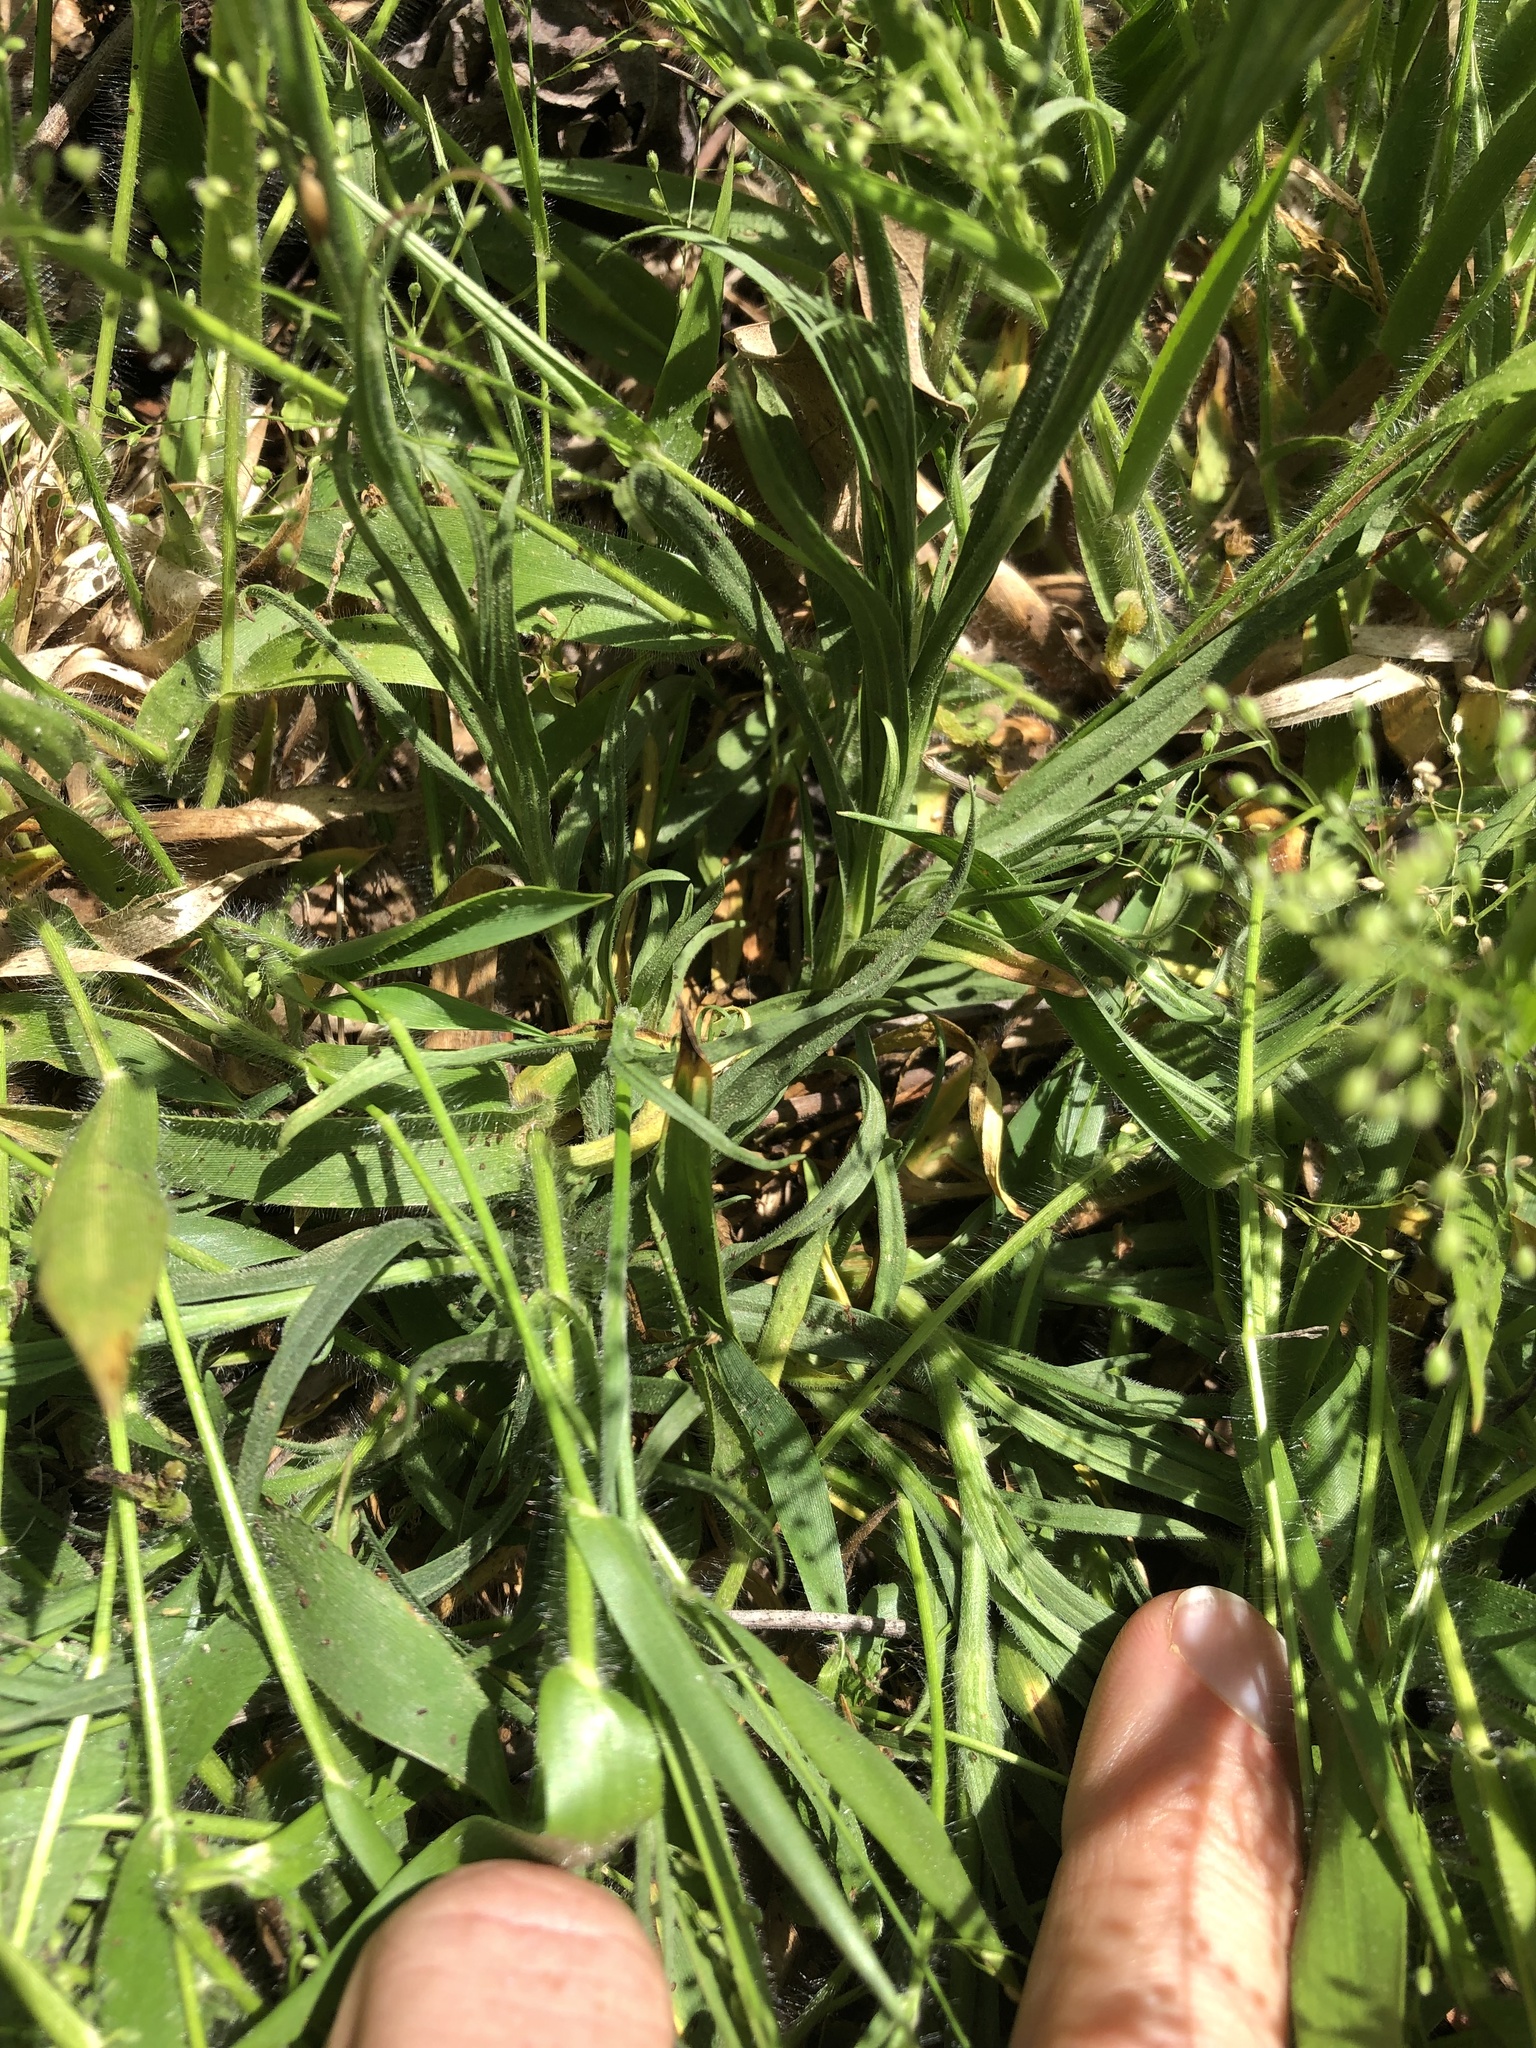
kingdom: Plantae
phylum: Tracheophyta
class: Magnoliopsida
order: Caryophyllales
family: Caryophyllaceae
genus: Dianthus
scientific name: Dianthus armeria
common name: Deptford pink
